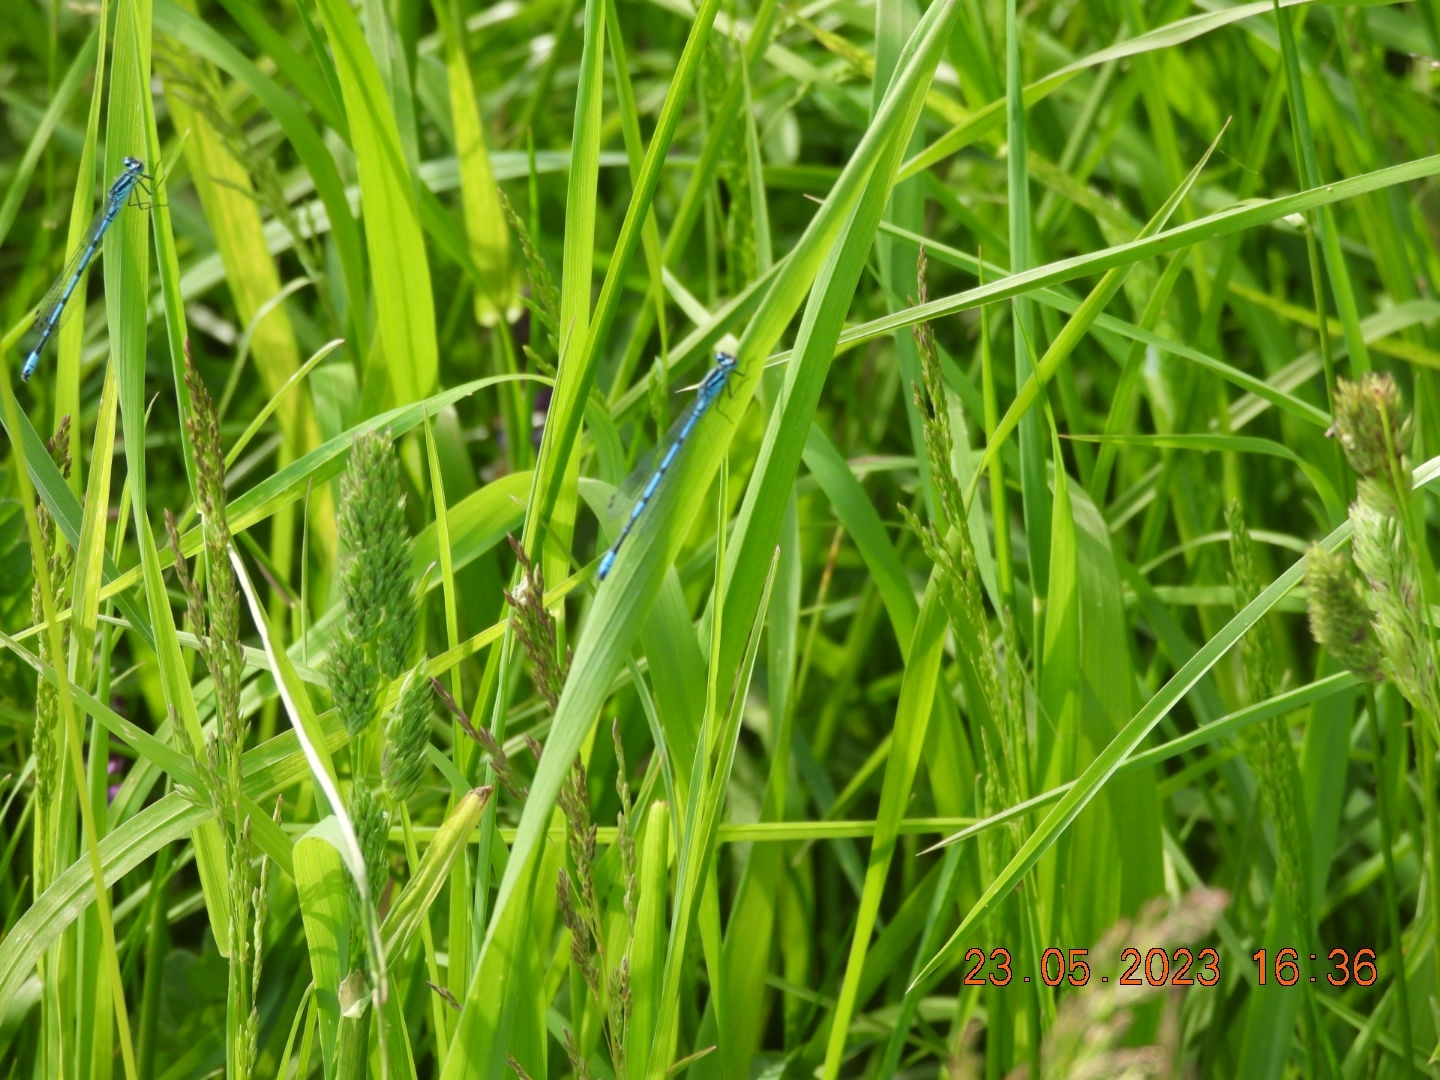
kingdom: Animalia
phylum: Arthropoda
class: Insecta
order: Odonata
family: Coenagrionidae
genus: Coenagrion
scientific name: Coenagrion puella
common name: Azure damselfly
